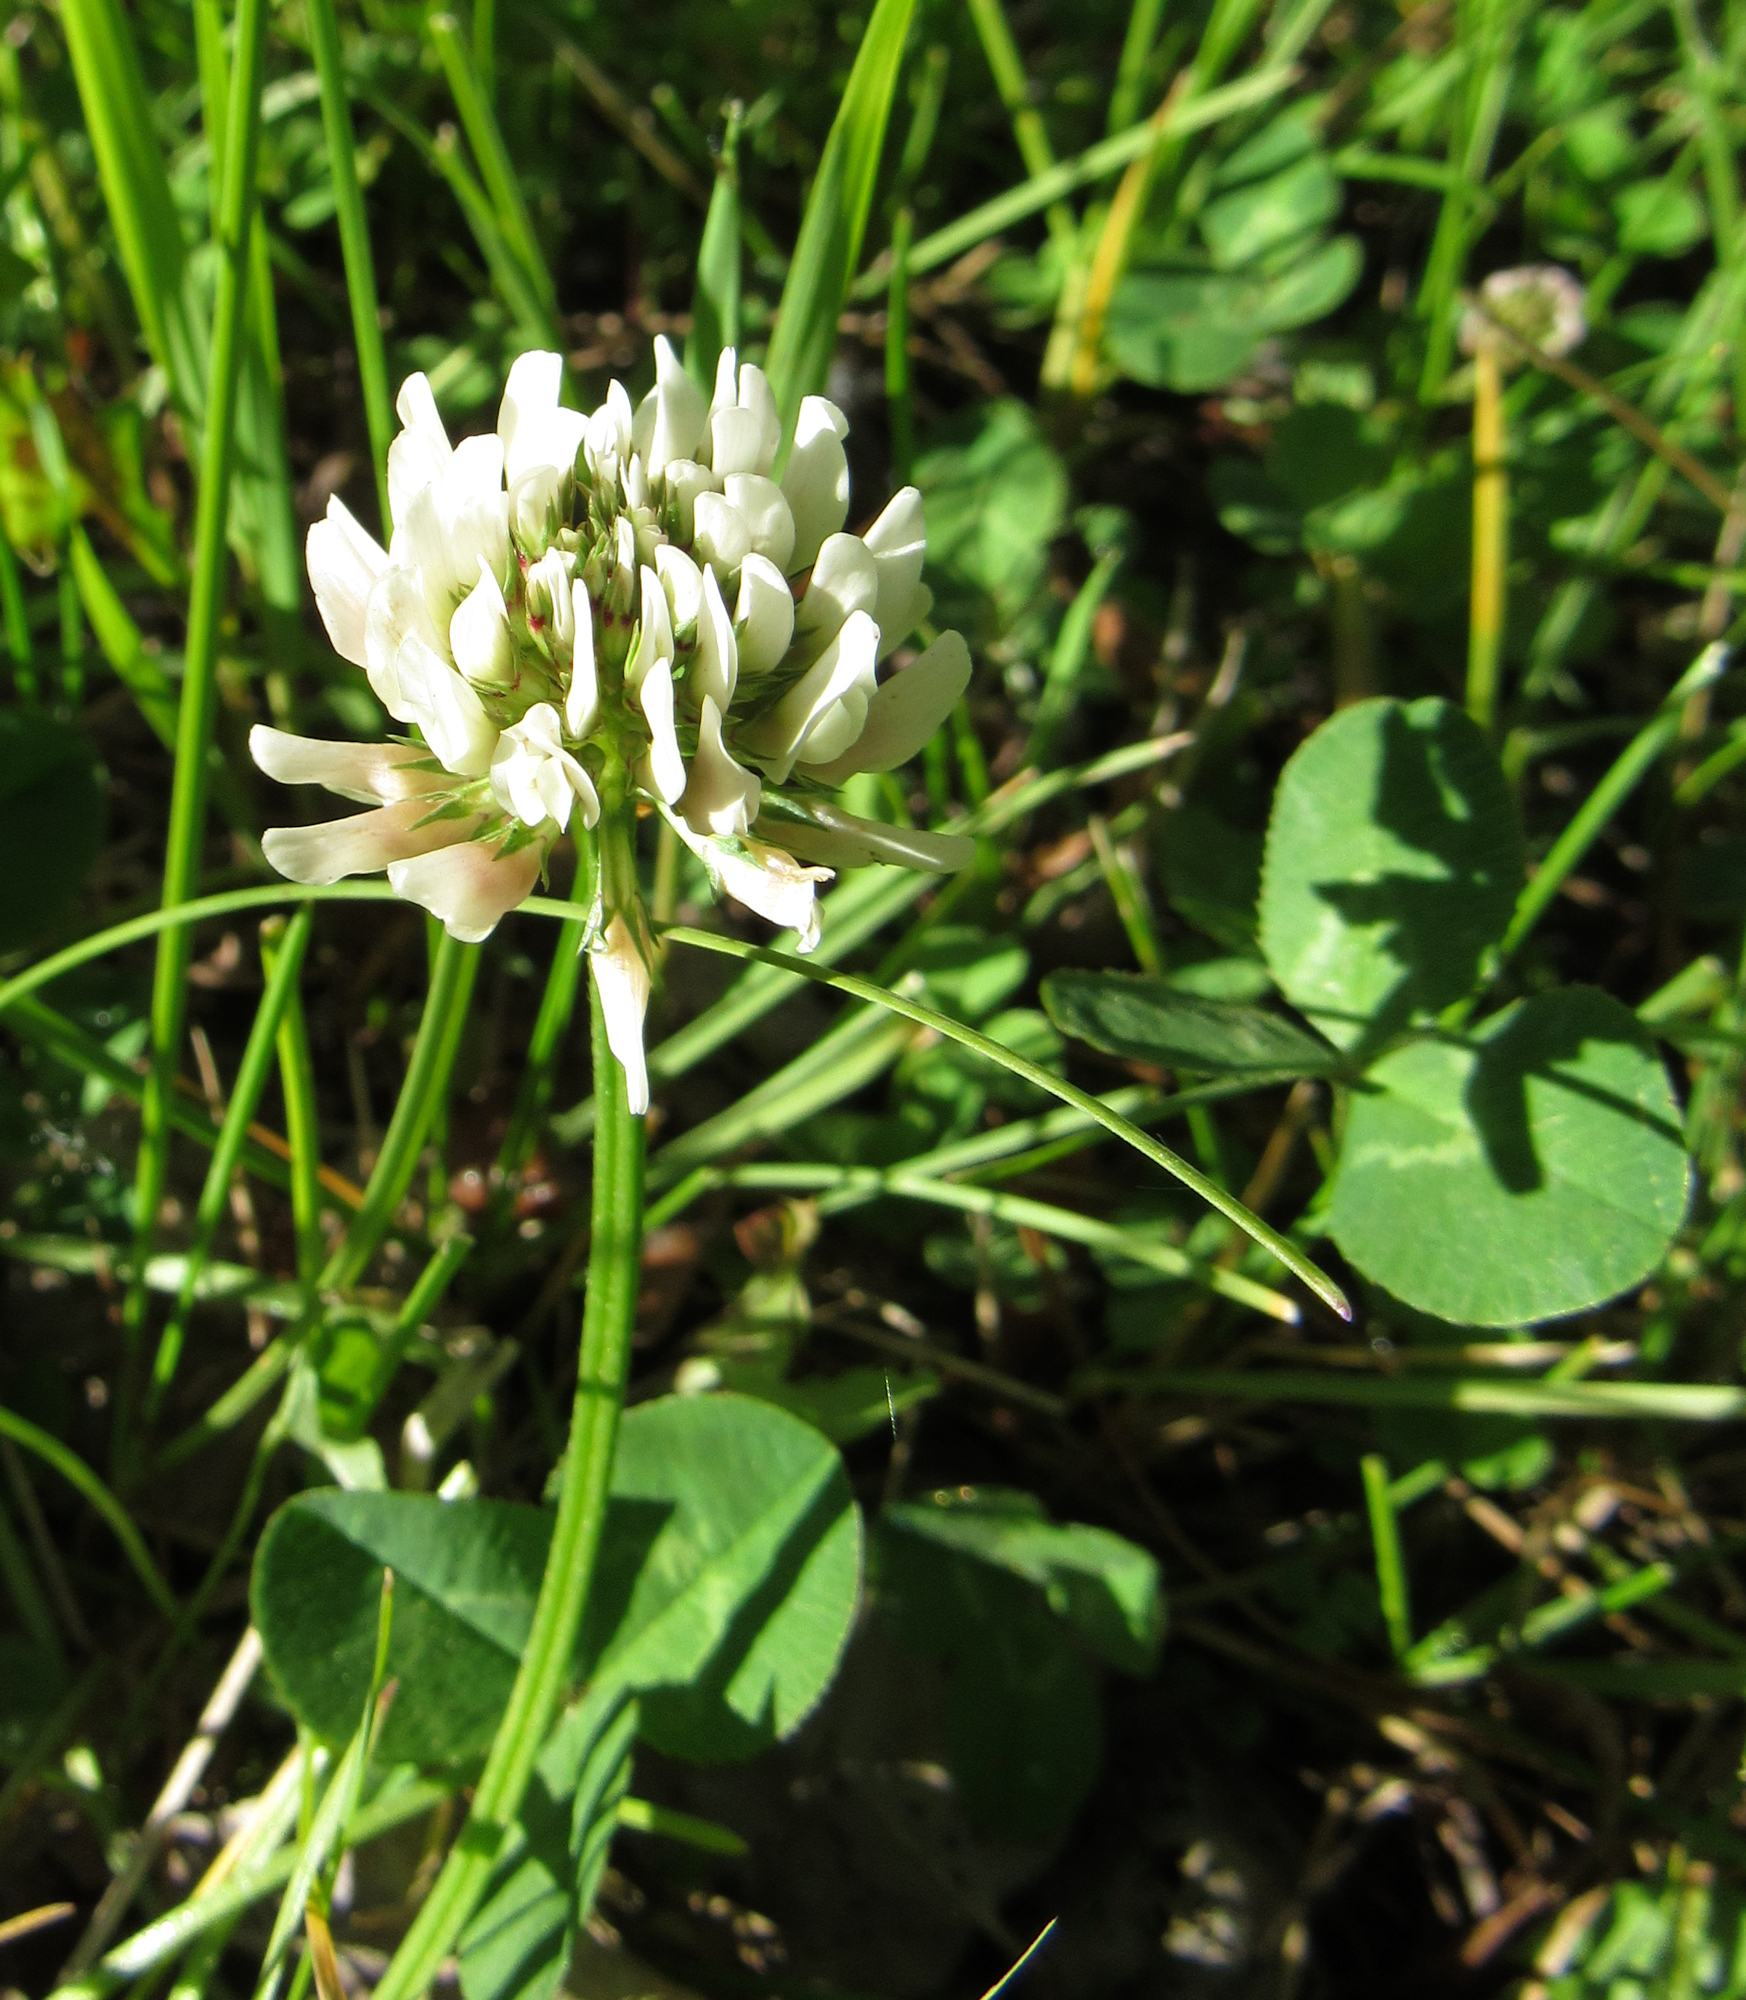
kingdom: Plantae
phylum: Tracheophyta
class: Magnoliopsida
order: Fabales
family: Fabaceae
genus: Trifolium
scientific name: Trifolium repens
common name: White clover
